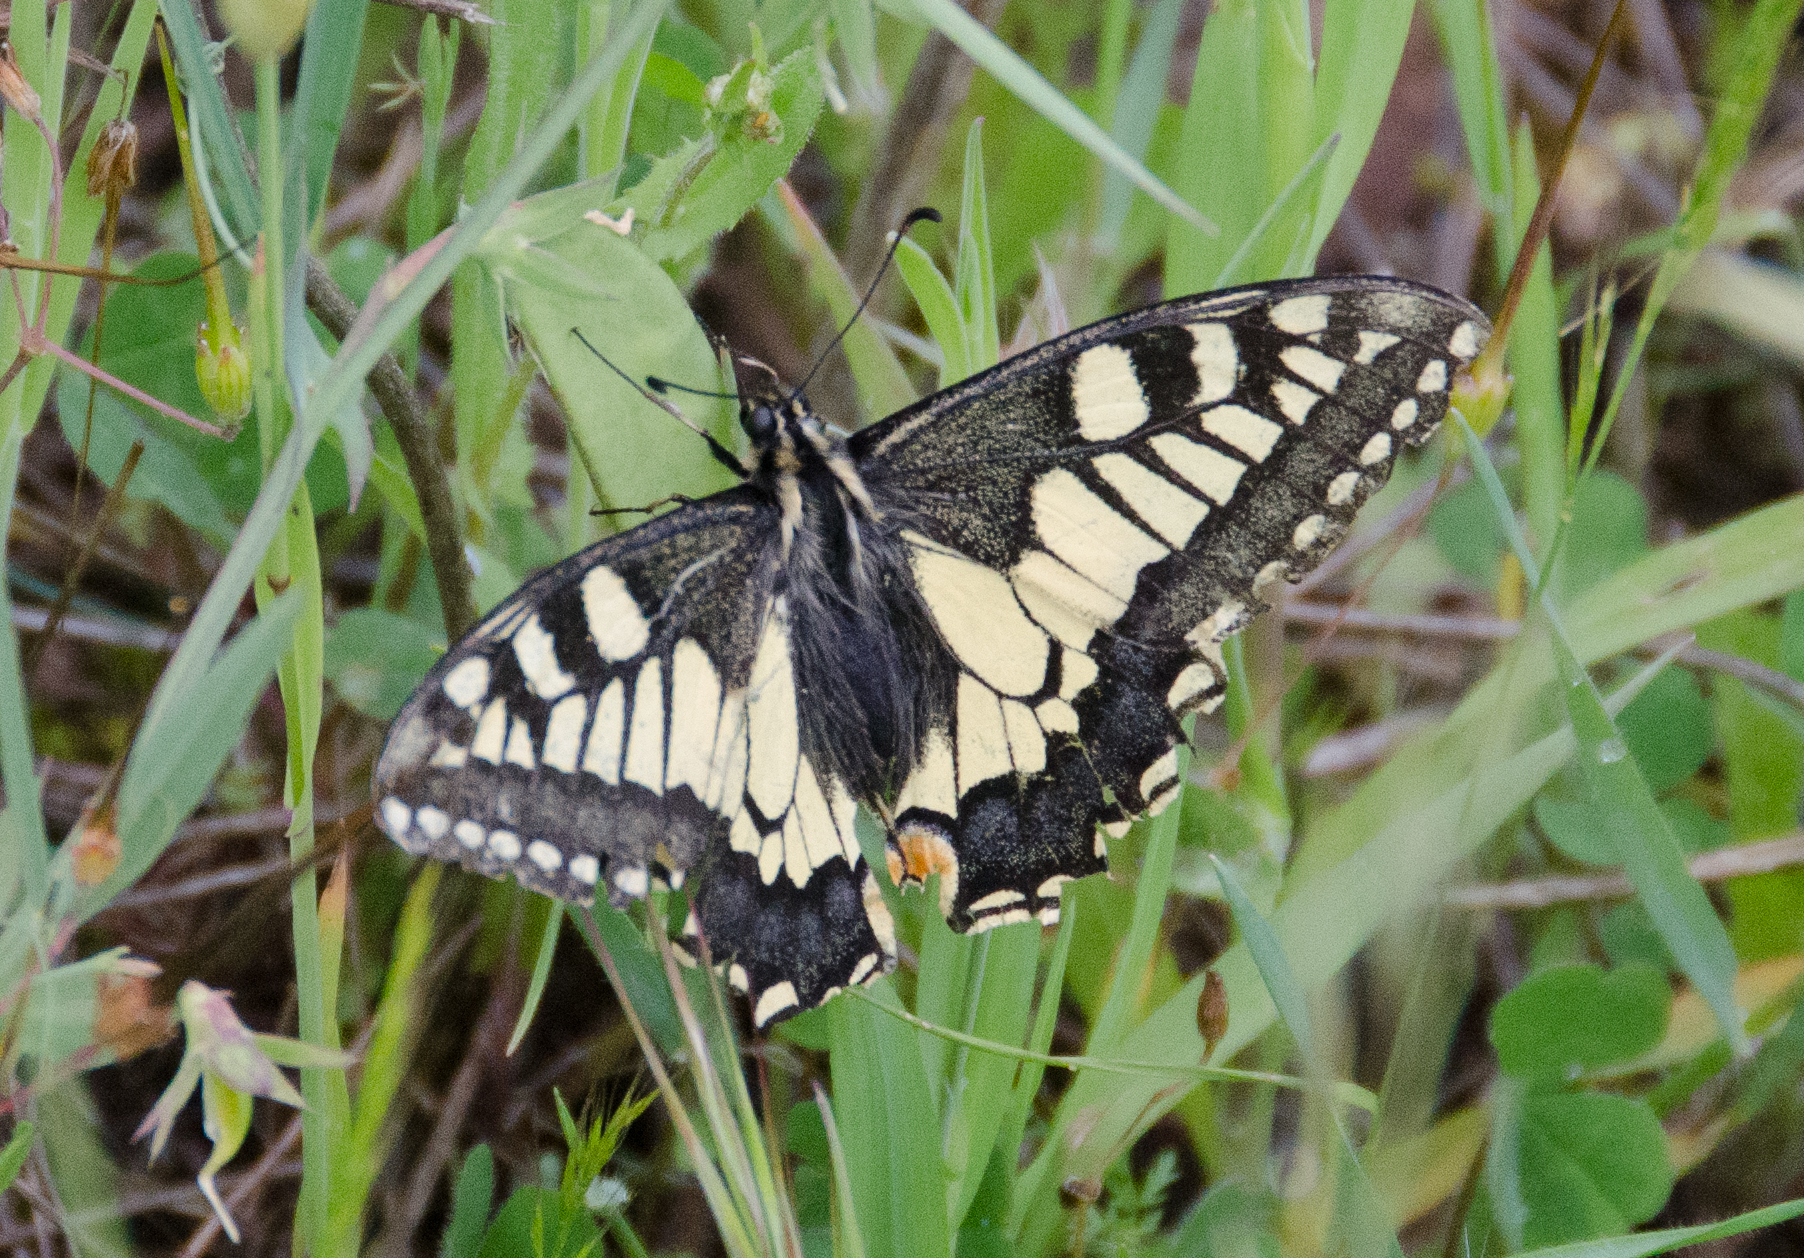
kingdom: Animalia
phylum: Arthropoda
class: Insecta
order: Lepidoptera
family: Papilionidae
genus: Papilio
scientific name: Papilio machaon
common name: Swallowtail
